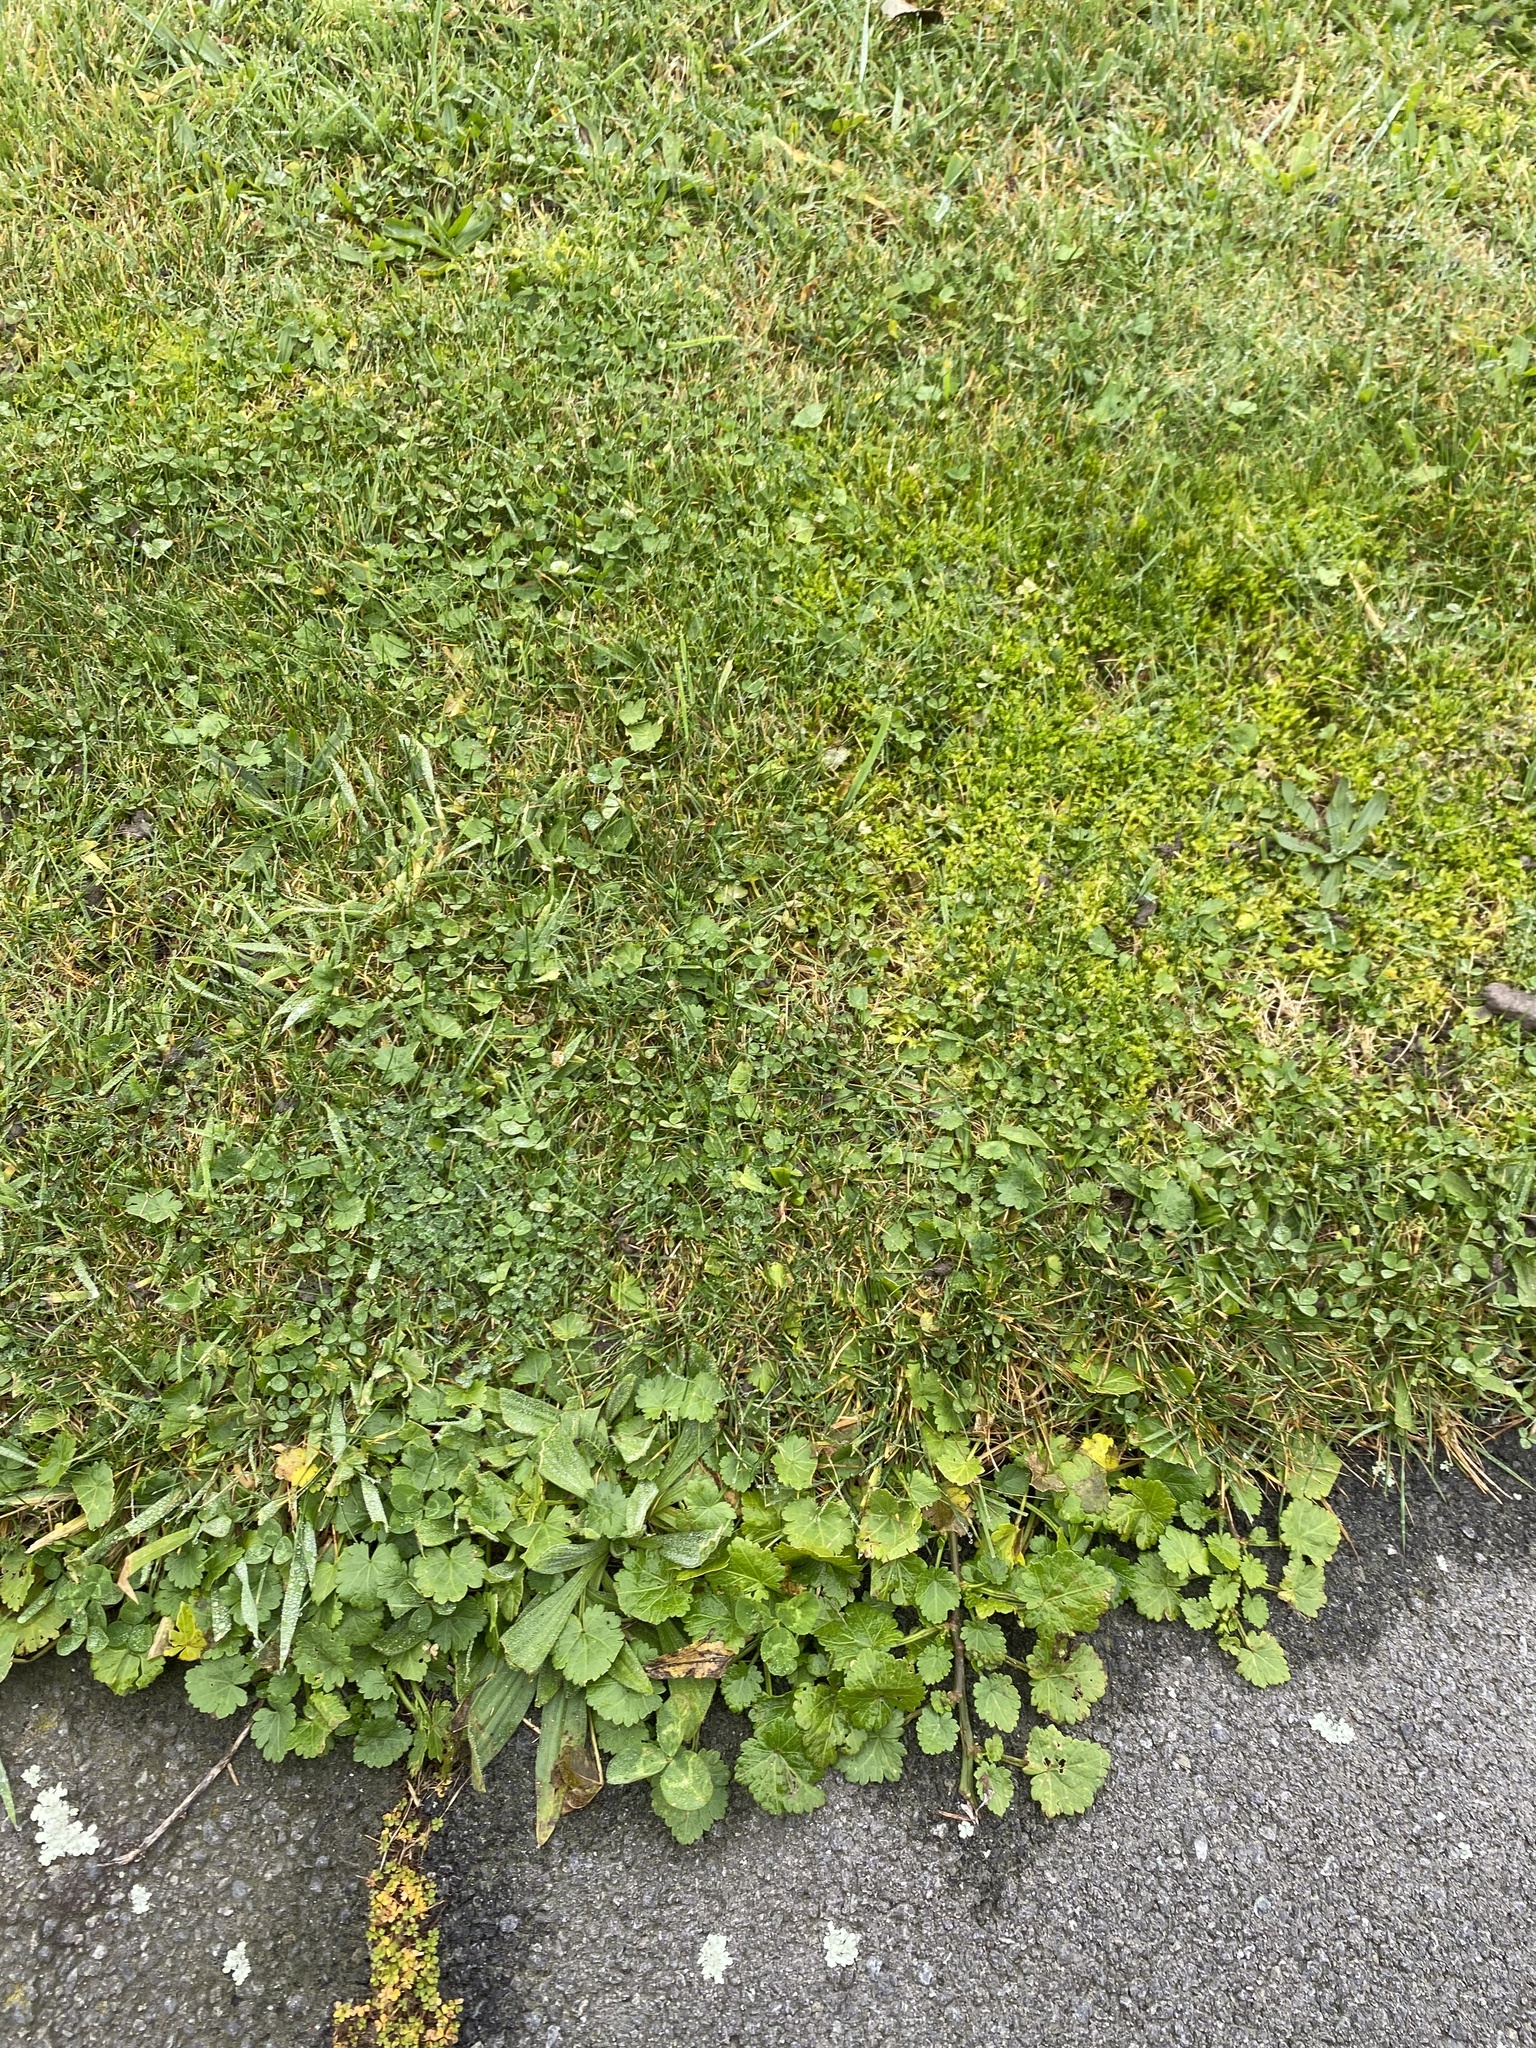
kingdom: Plantae
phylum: Tracheophyta
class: Magnoliopsida
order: Malvales
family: Malvaceae
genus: Modiola
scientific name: Modiola caroliniana
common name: Carolina bristlemallow
